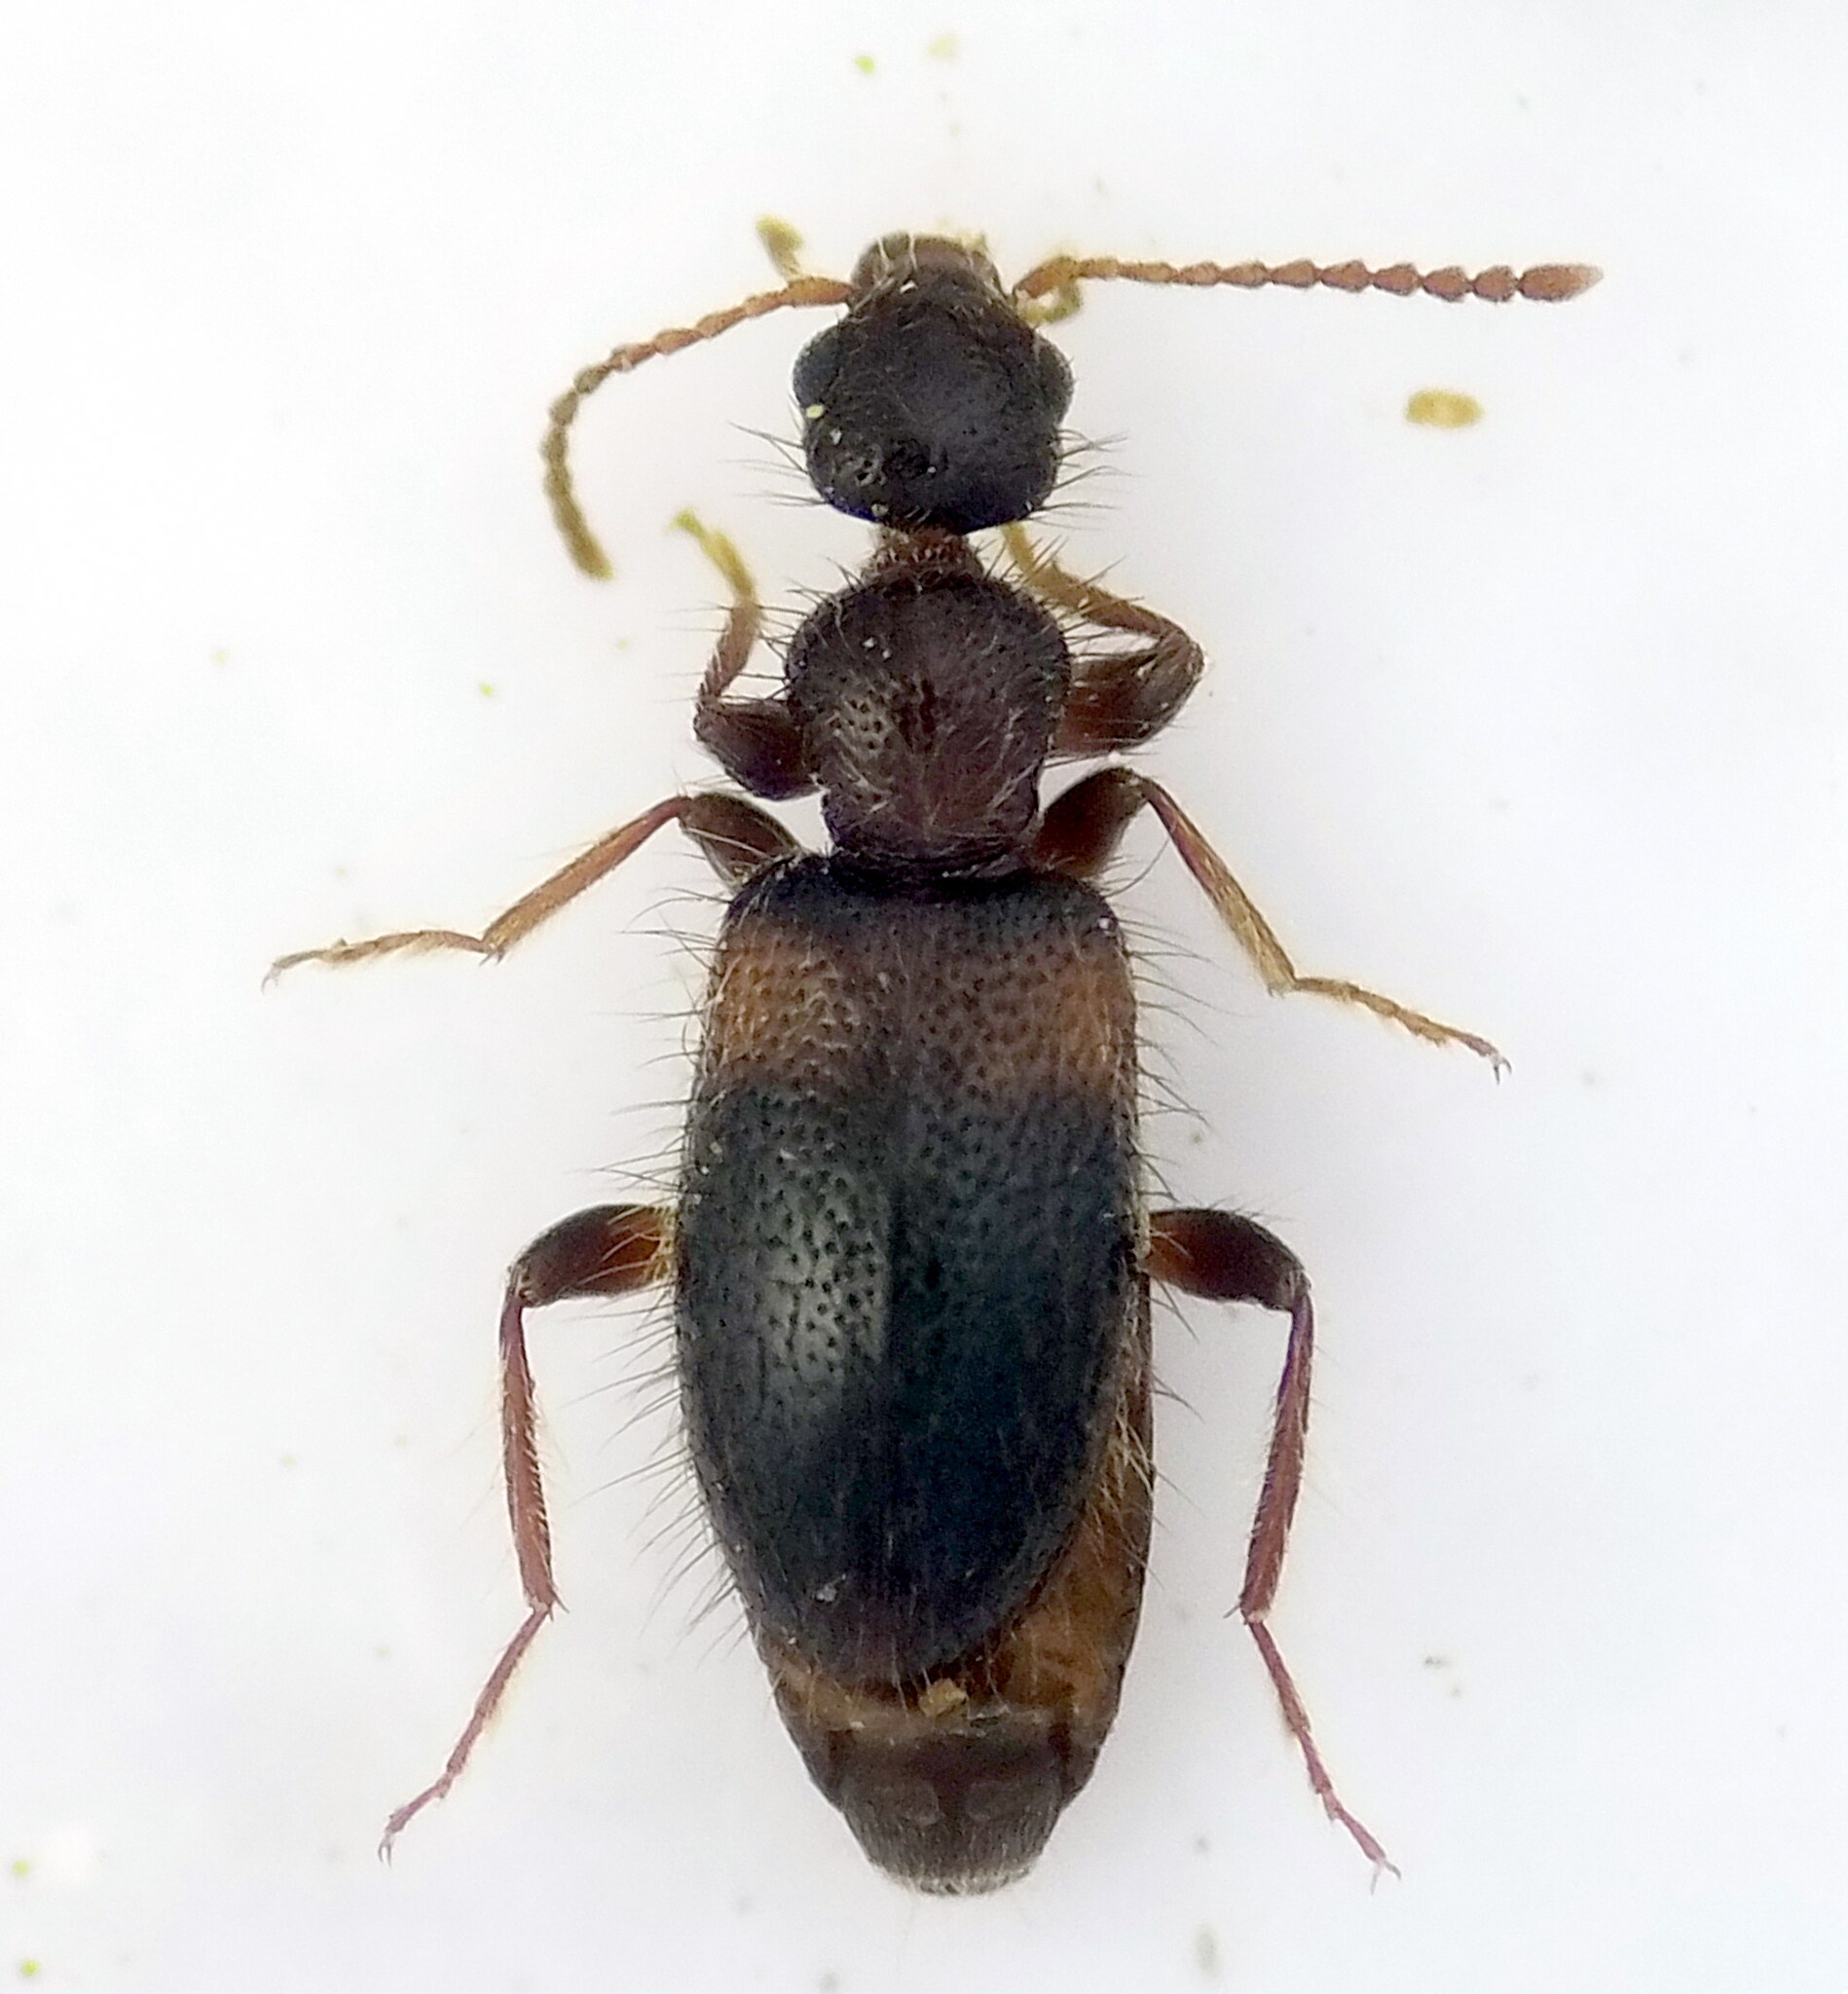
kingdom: Animalia
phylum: Arthropoda
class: Insecta
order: Coleoptera
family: Anthicidae
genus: Hirticollis
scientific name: Hirticollis hispidus
